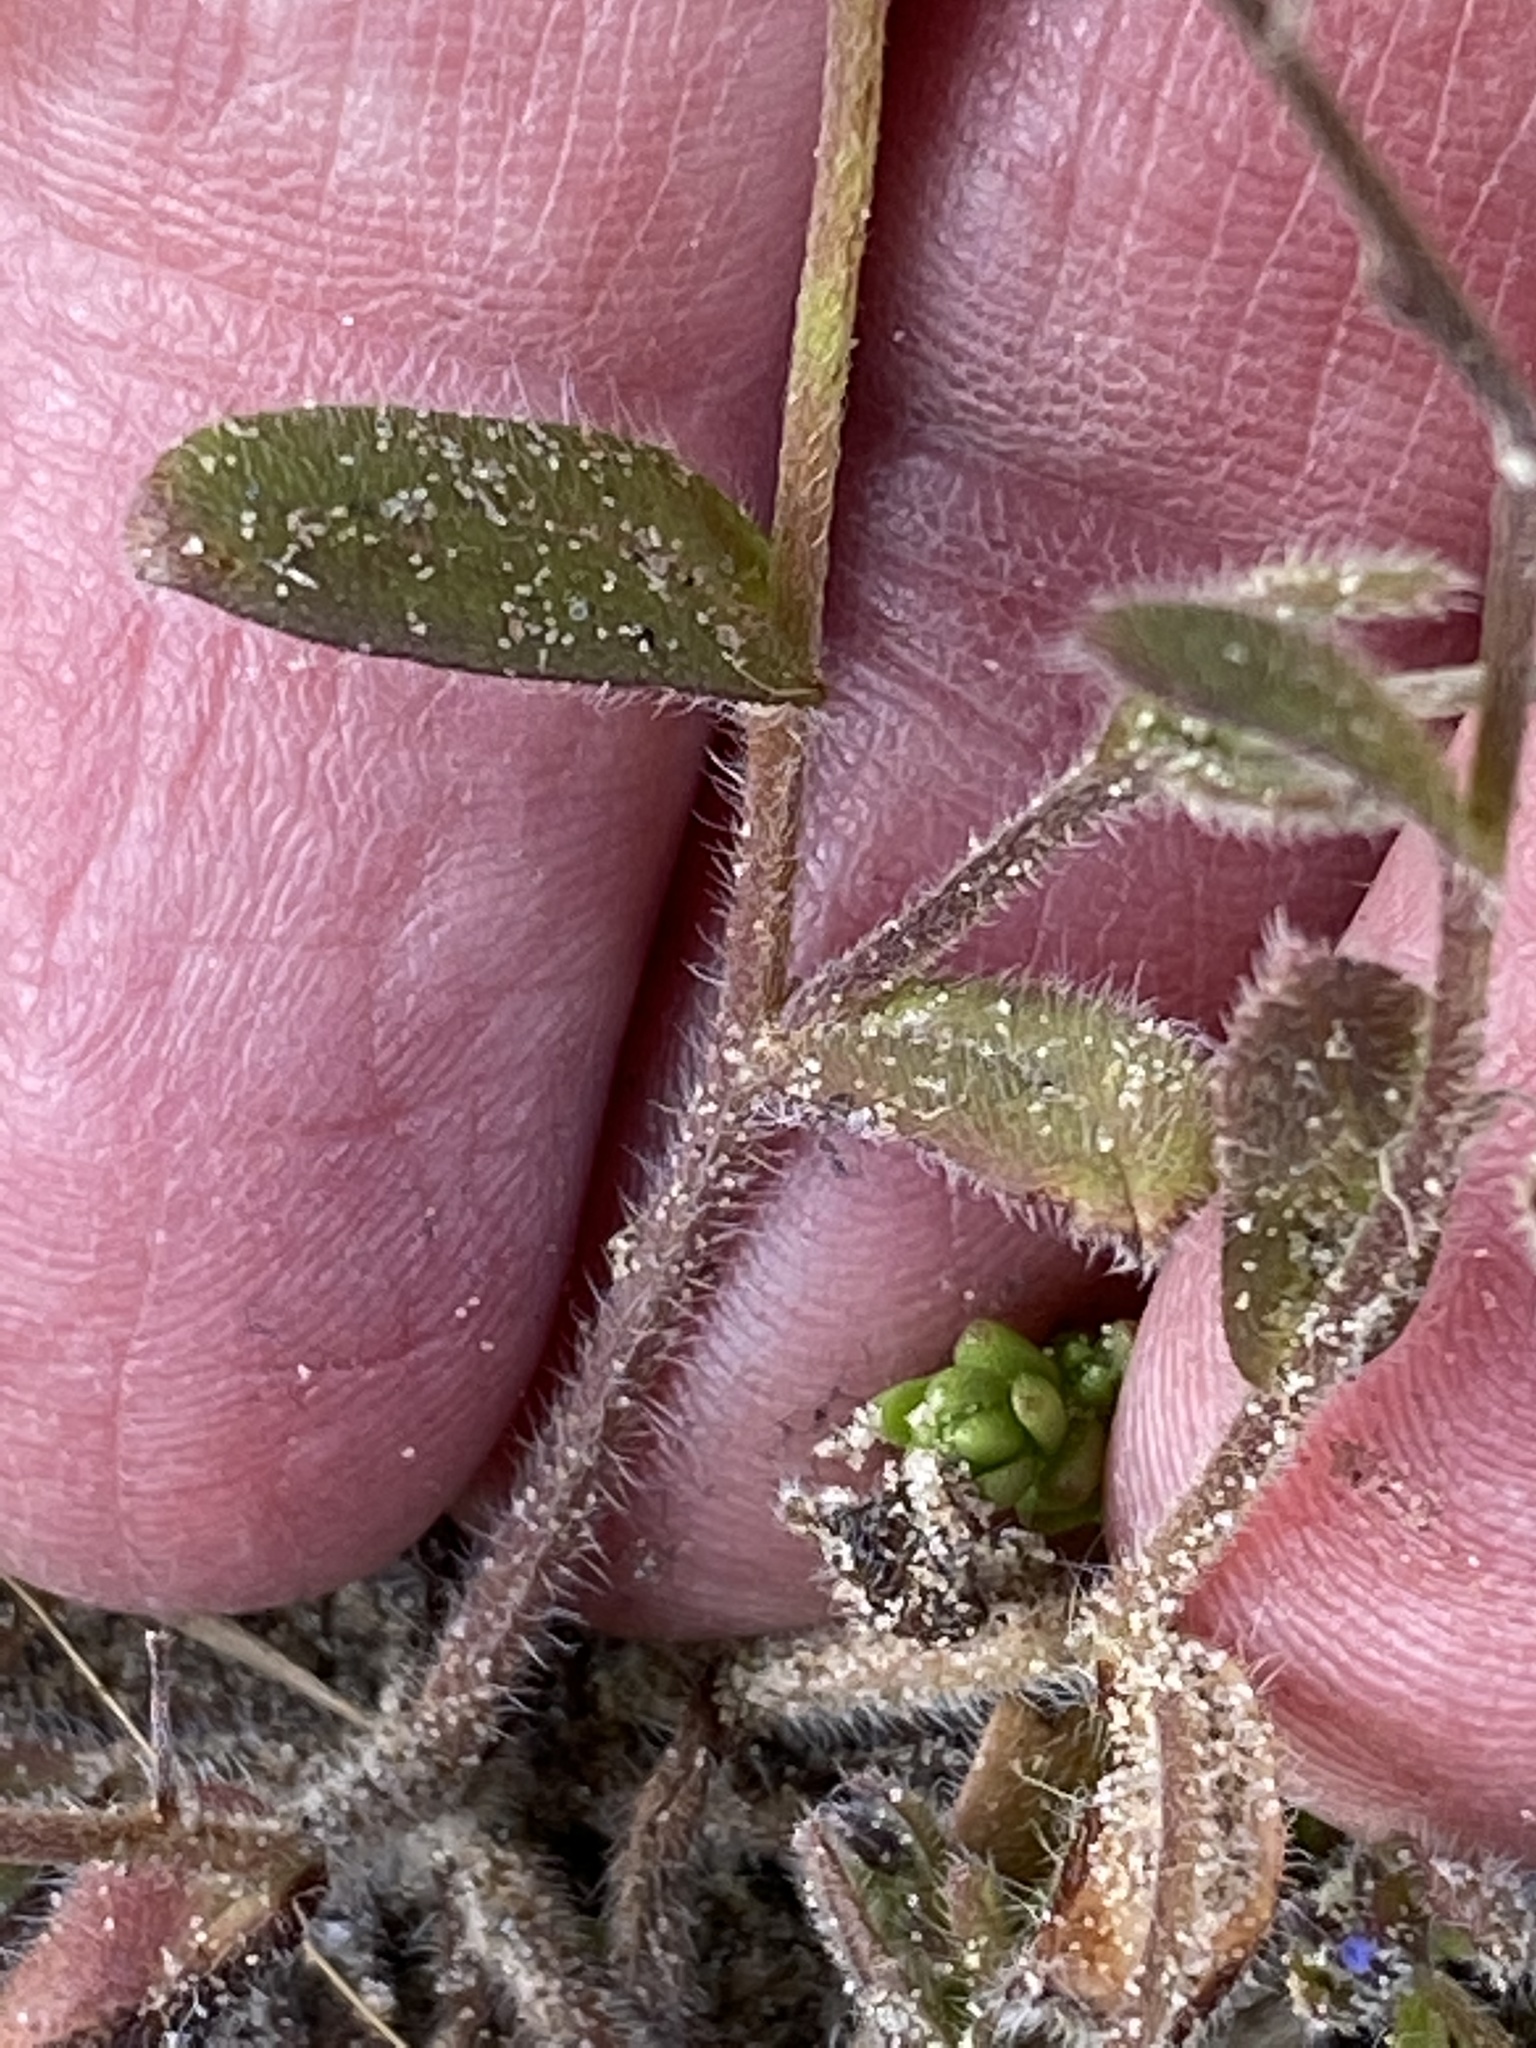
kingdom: Plantae
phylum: Tracheophyta
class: Magnoliopsida
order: Boraginales
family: Boraginaceae
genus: Myosotis
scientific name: Myosotis ramosissima
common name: Early forget-me-not
